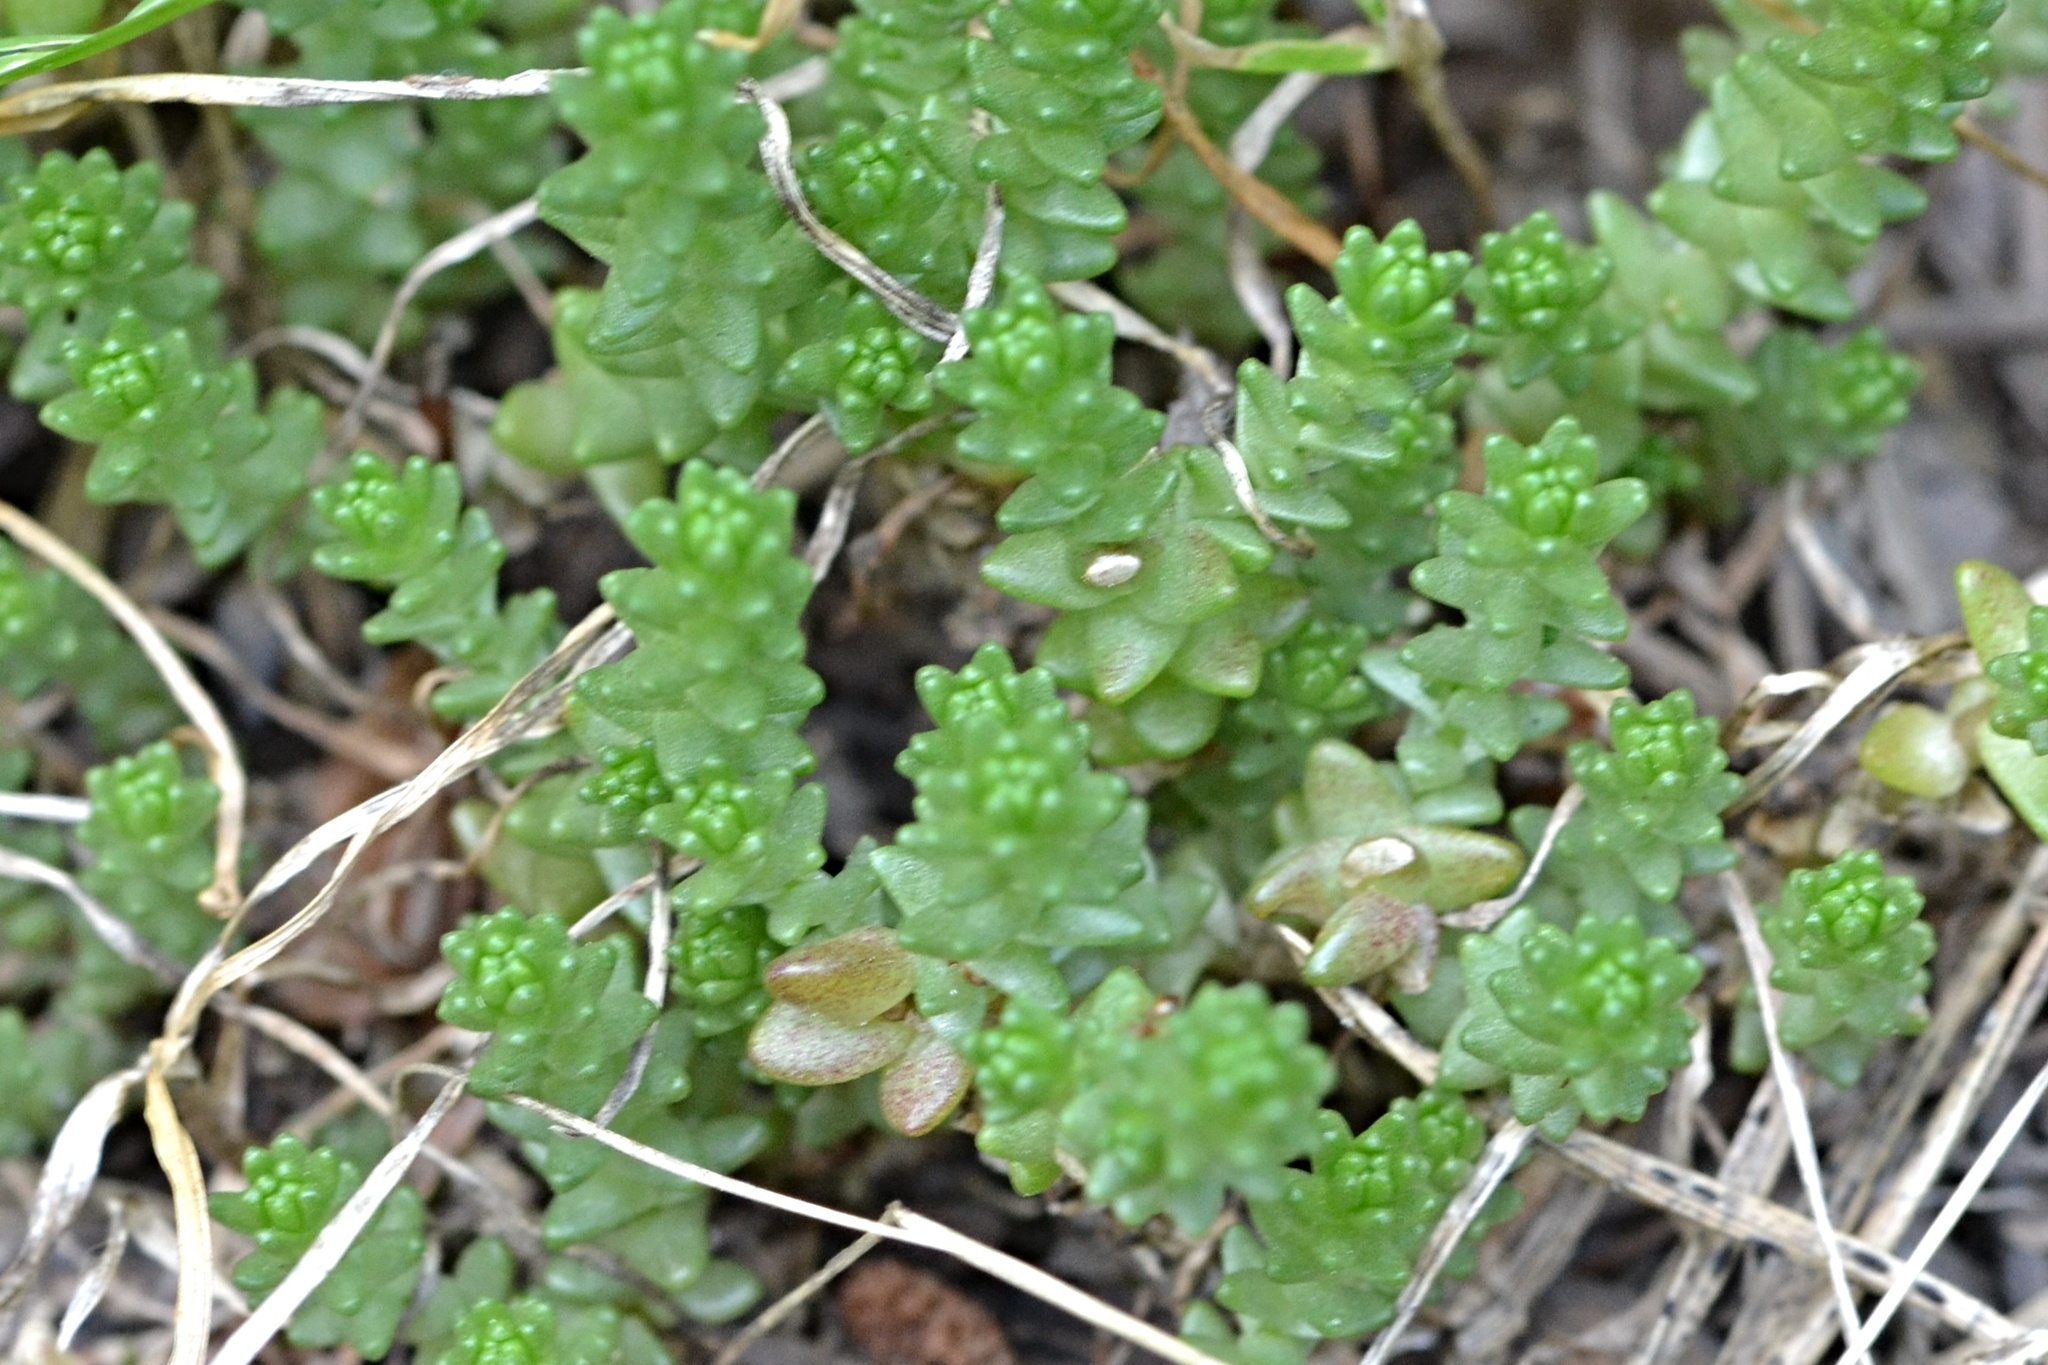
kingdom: Plantae
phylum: Tracheophyta
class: Magnoliopsida
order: Saxifragales
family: Crassulaceae
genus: Sedum
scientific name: Sedum acre
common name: Biting stonecrop
